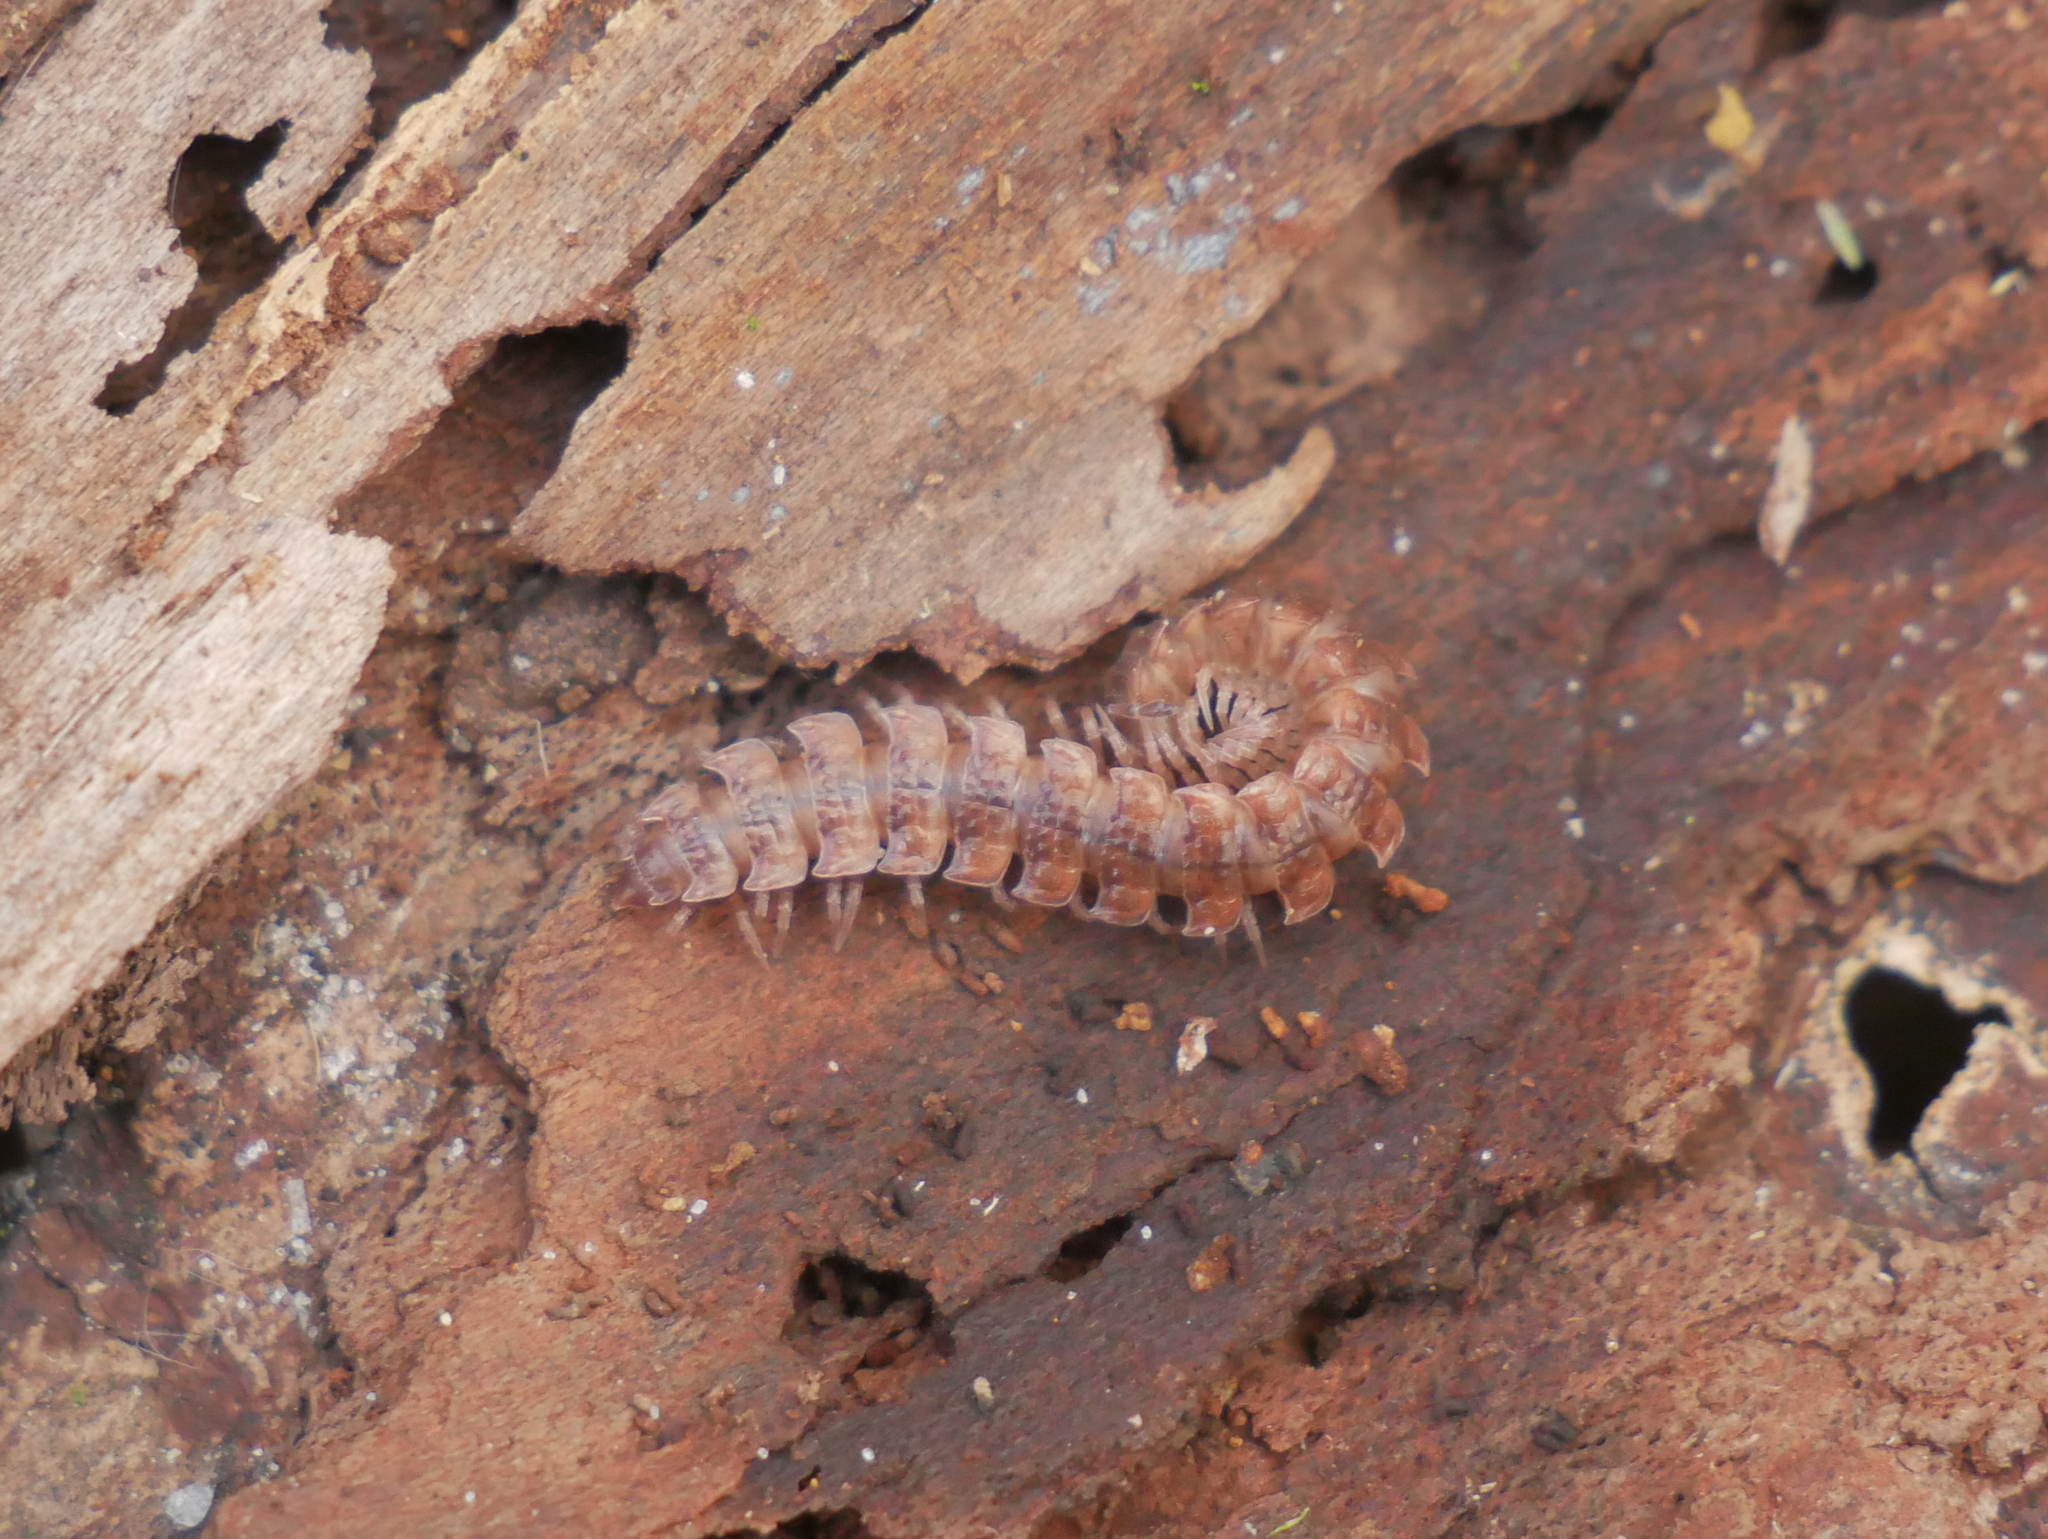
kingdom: Animalia
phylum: Arthropoda
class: Diplopoda
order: Polydesmida
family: Polydesmidae
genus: Polydesmus
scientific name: Polydesmus angustus
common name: Flat millipede
